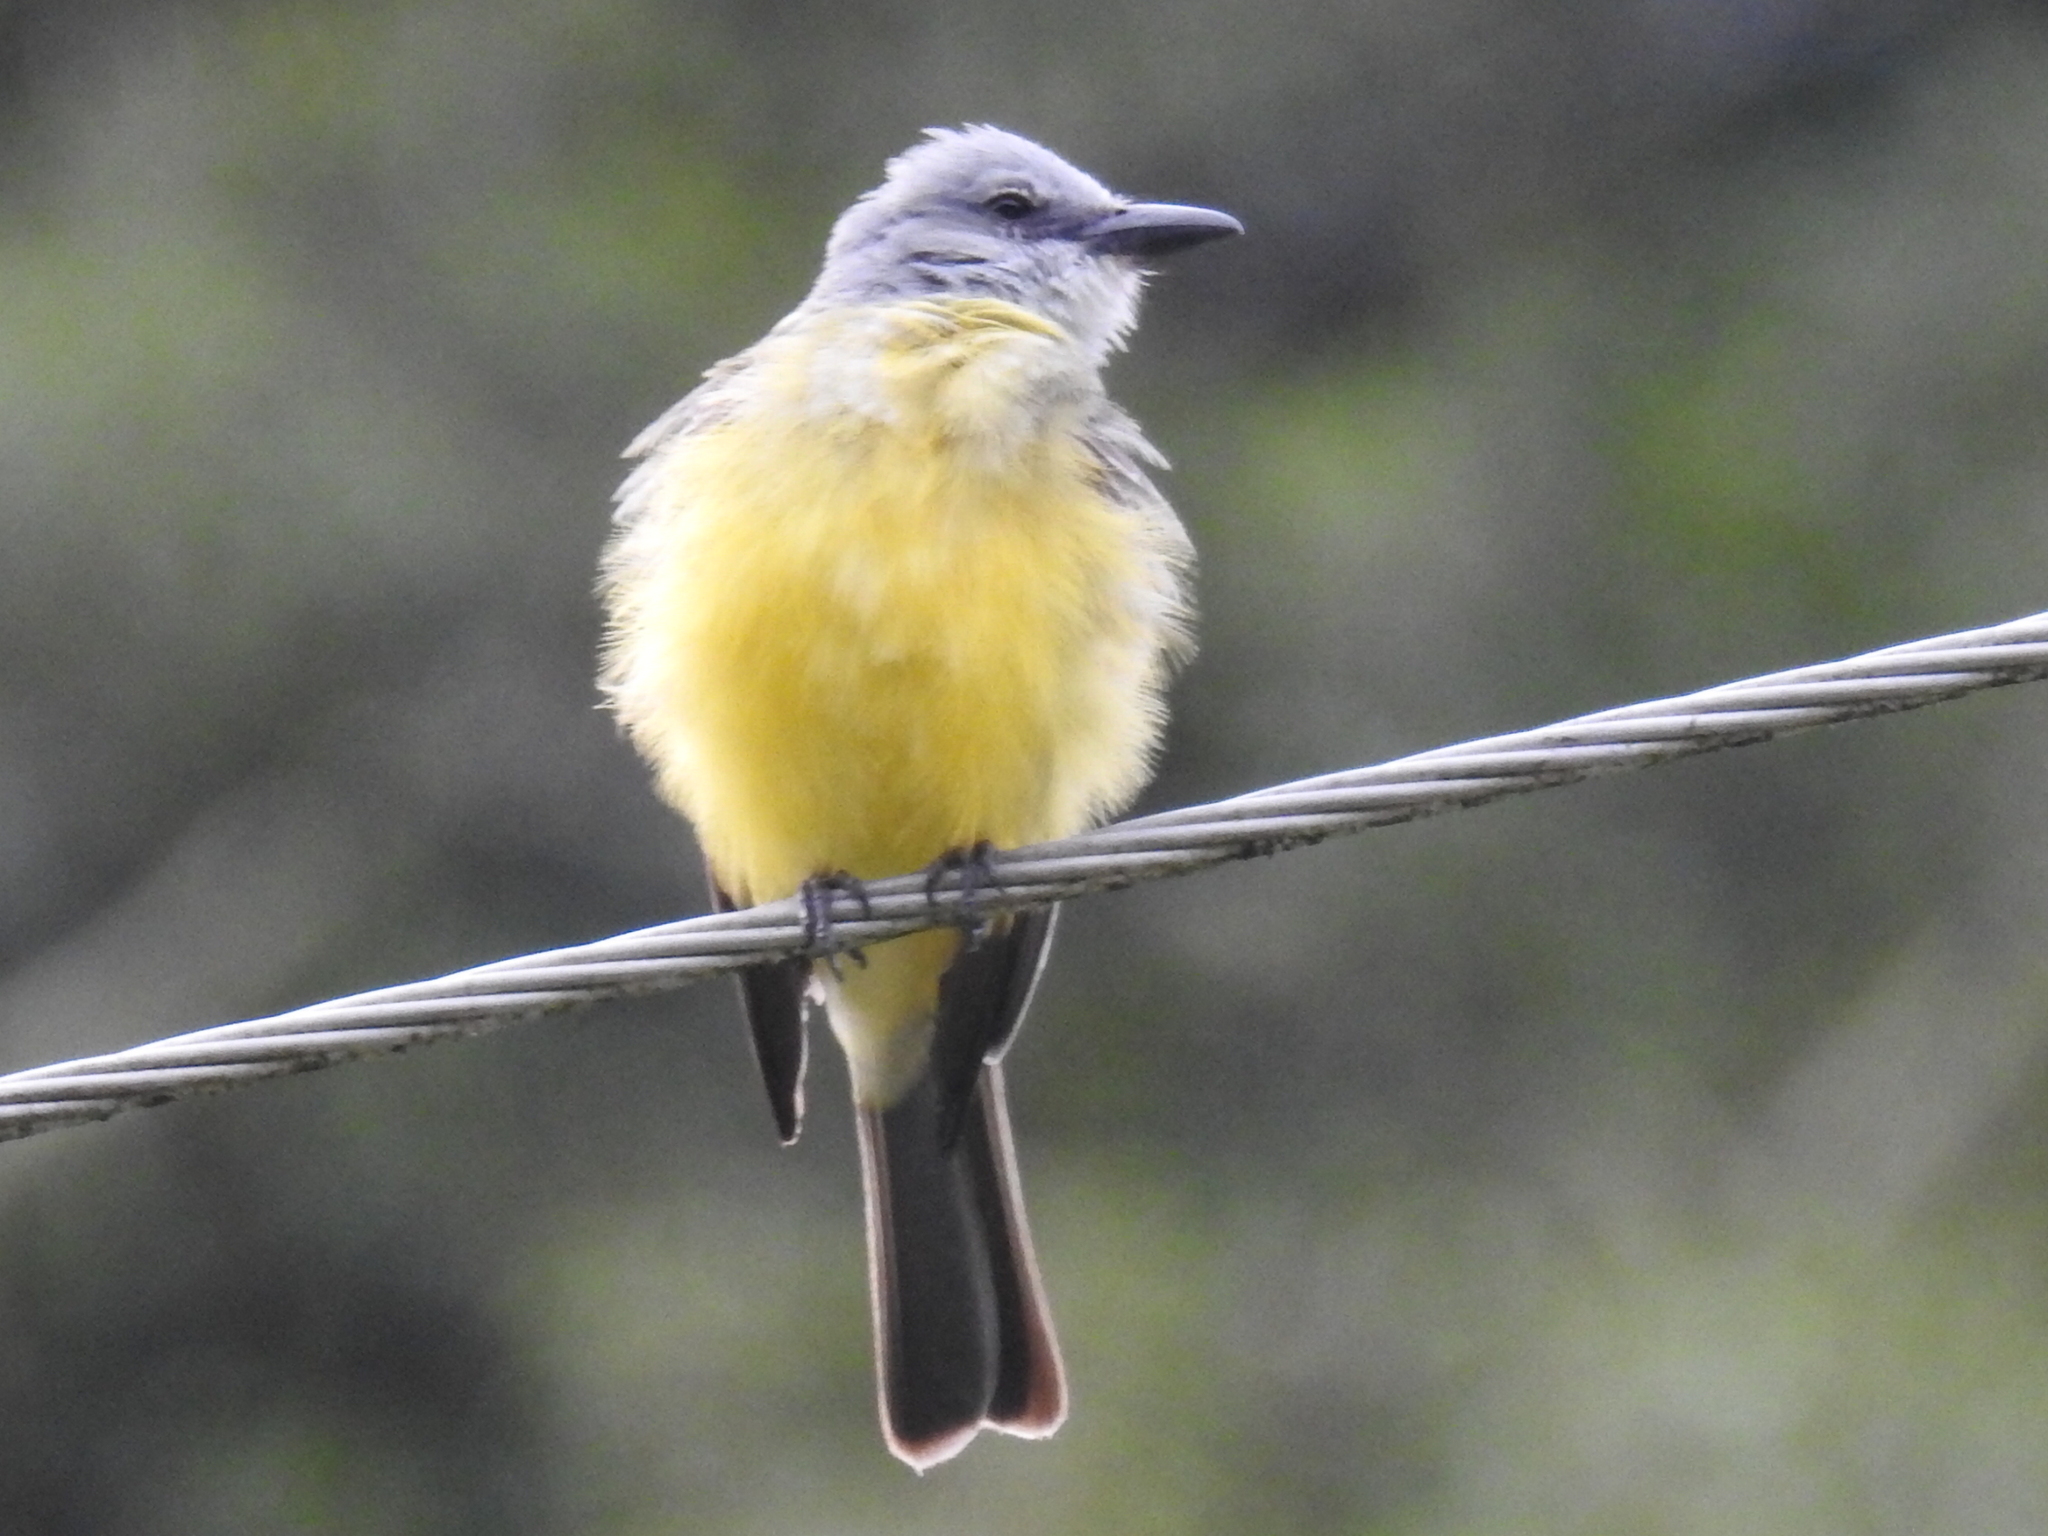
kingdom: Animalia
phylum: Chordata
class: Aves
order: Passeriformes
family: Tyrannidae
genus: Tyrannus
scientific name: Tyrannus melancholicus
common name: Tropical kingbird
